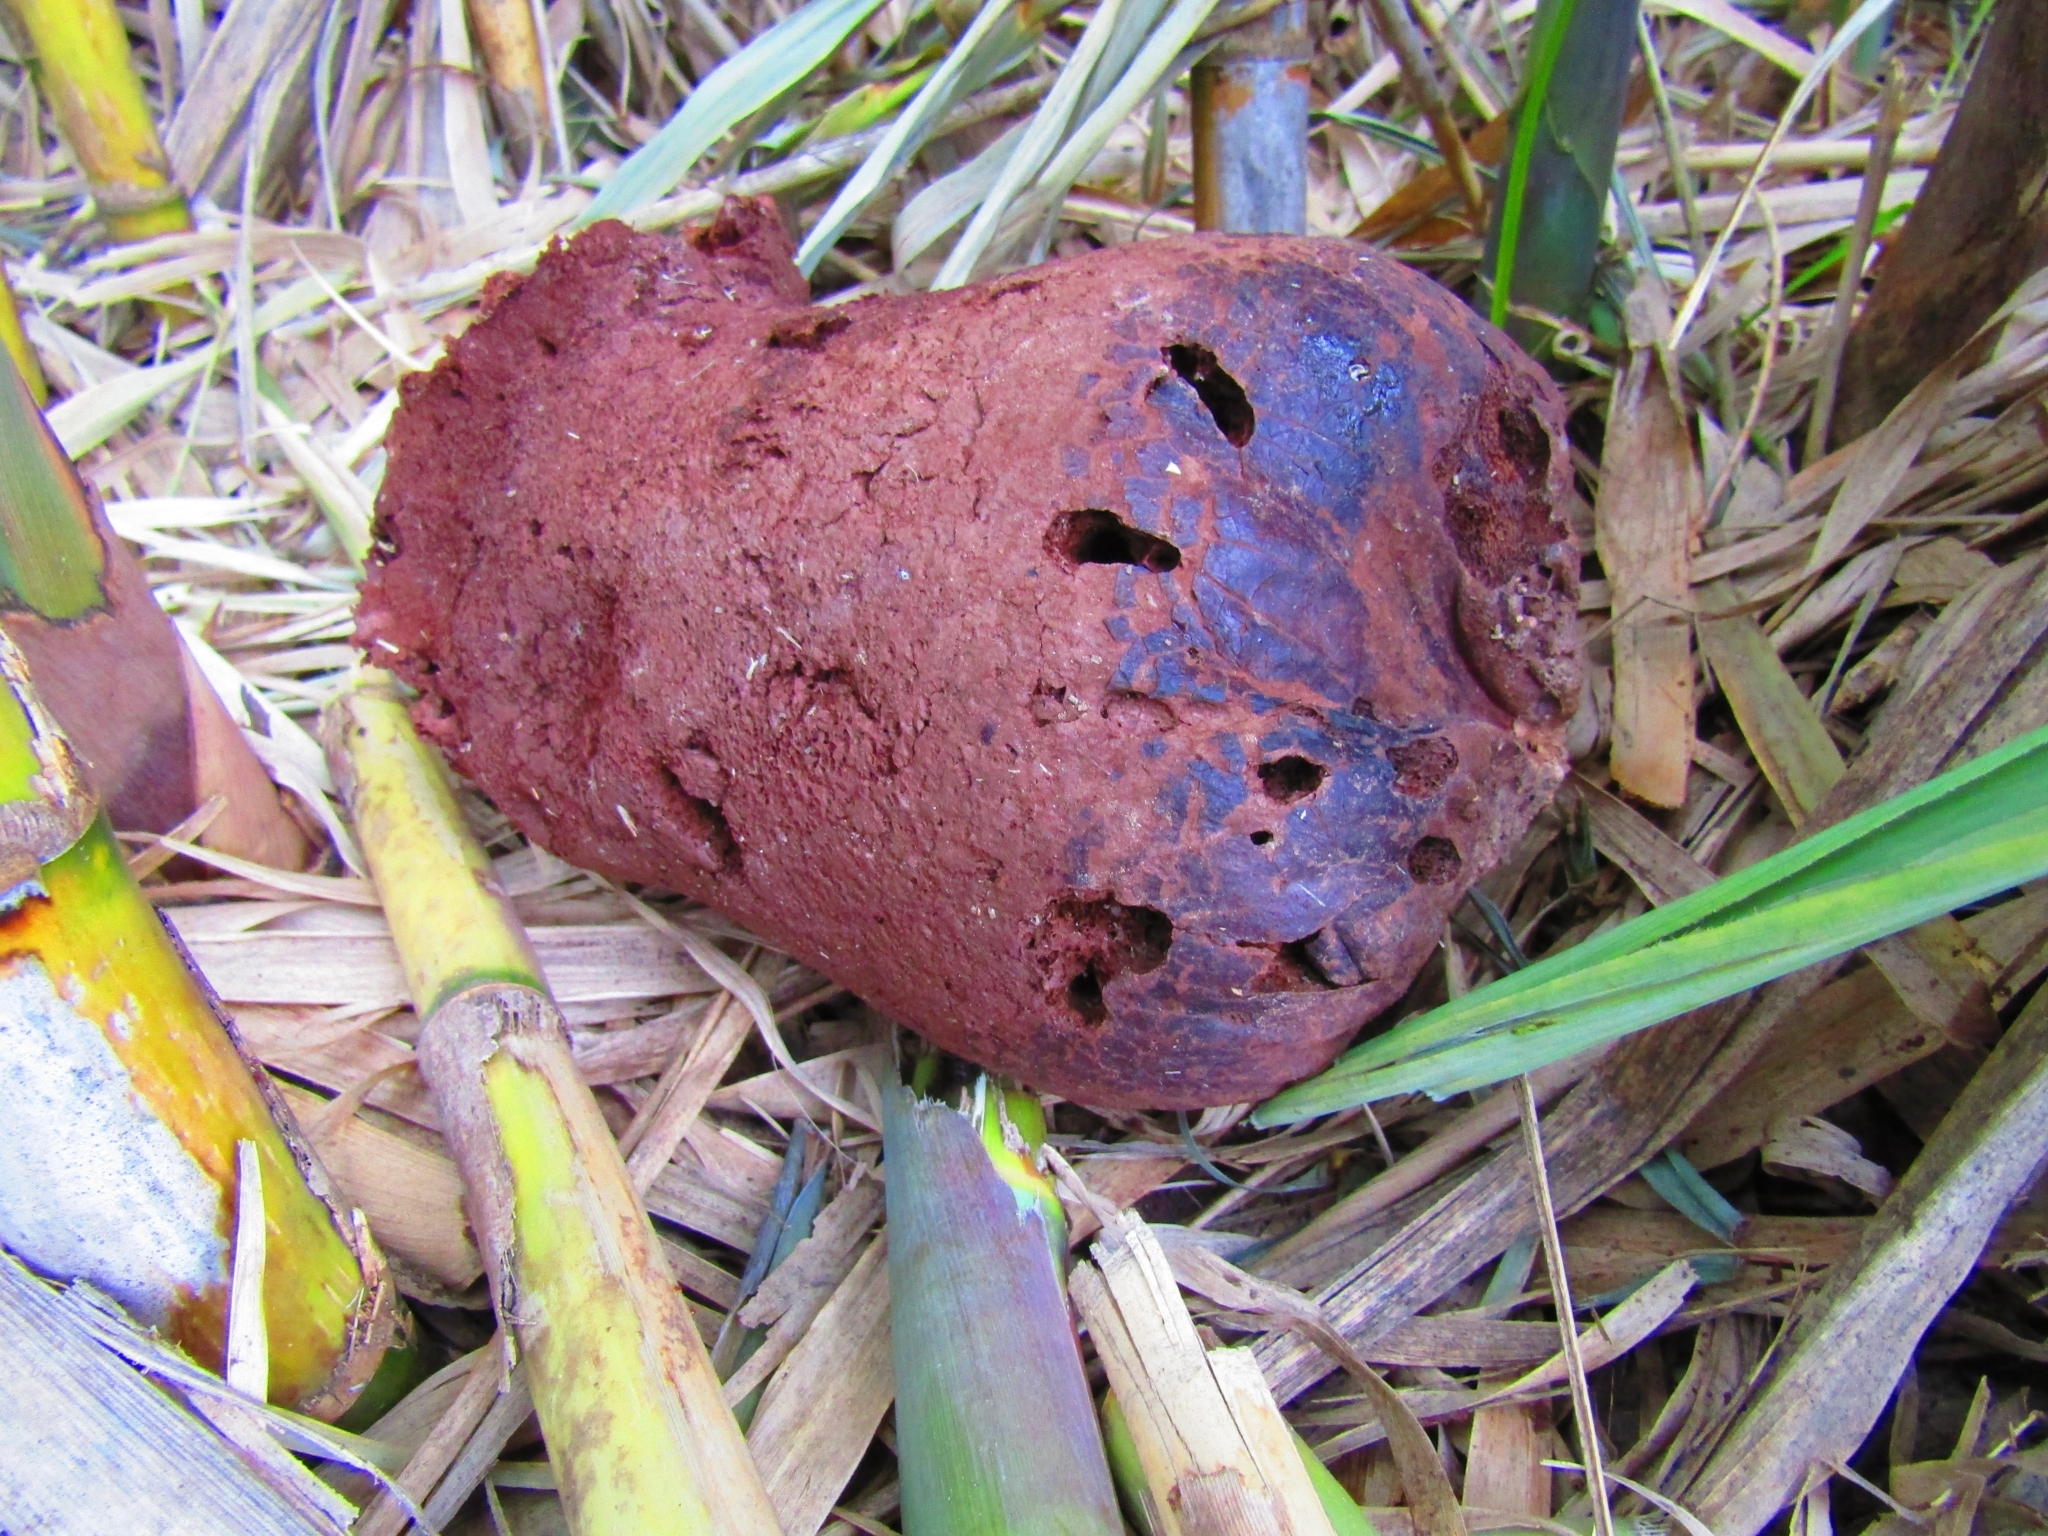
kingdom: Fungi
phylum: Basidiomycota
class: Agaricomycetes
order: Agaricales
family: Lycoperdaceae
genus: Calvatia
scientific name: Calvatia gigantea
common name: Giant puffball
